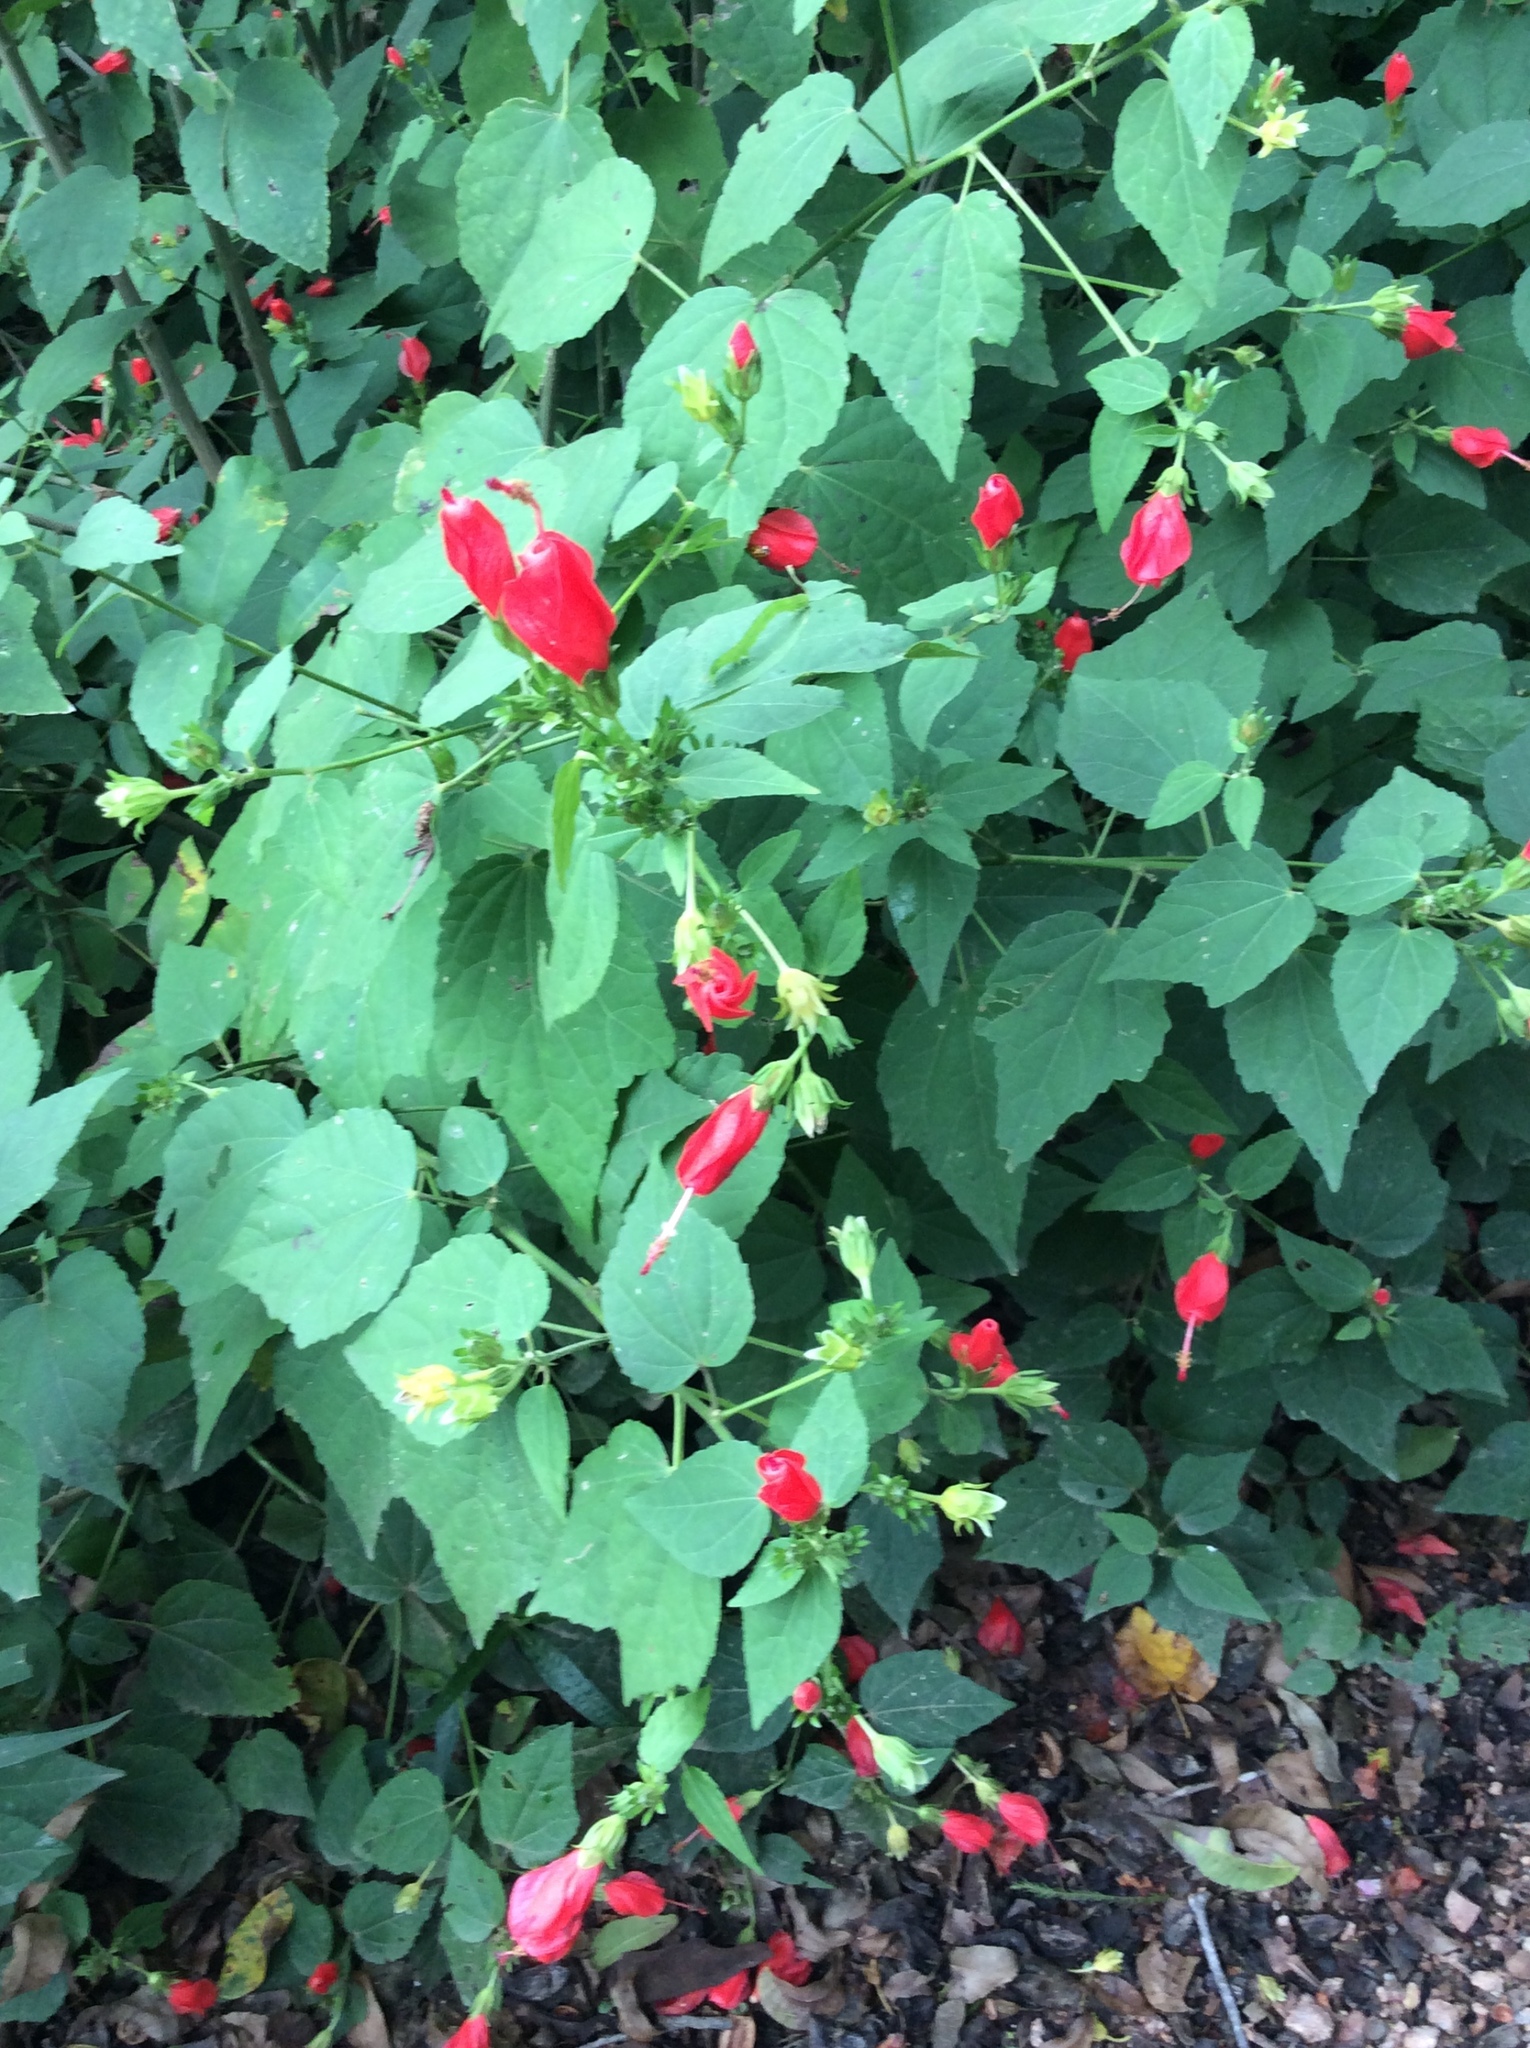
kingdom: Plantae
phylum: Tracheophyta
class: Magnoliopsida
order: Malvales
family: Malvaceae
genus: Malvaviscus
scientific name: Malvaviscus arboreus
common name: Wax mallow
